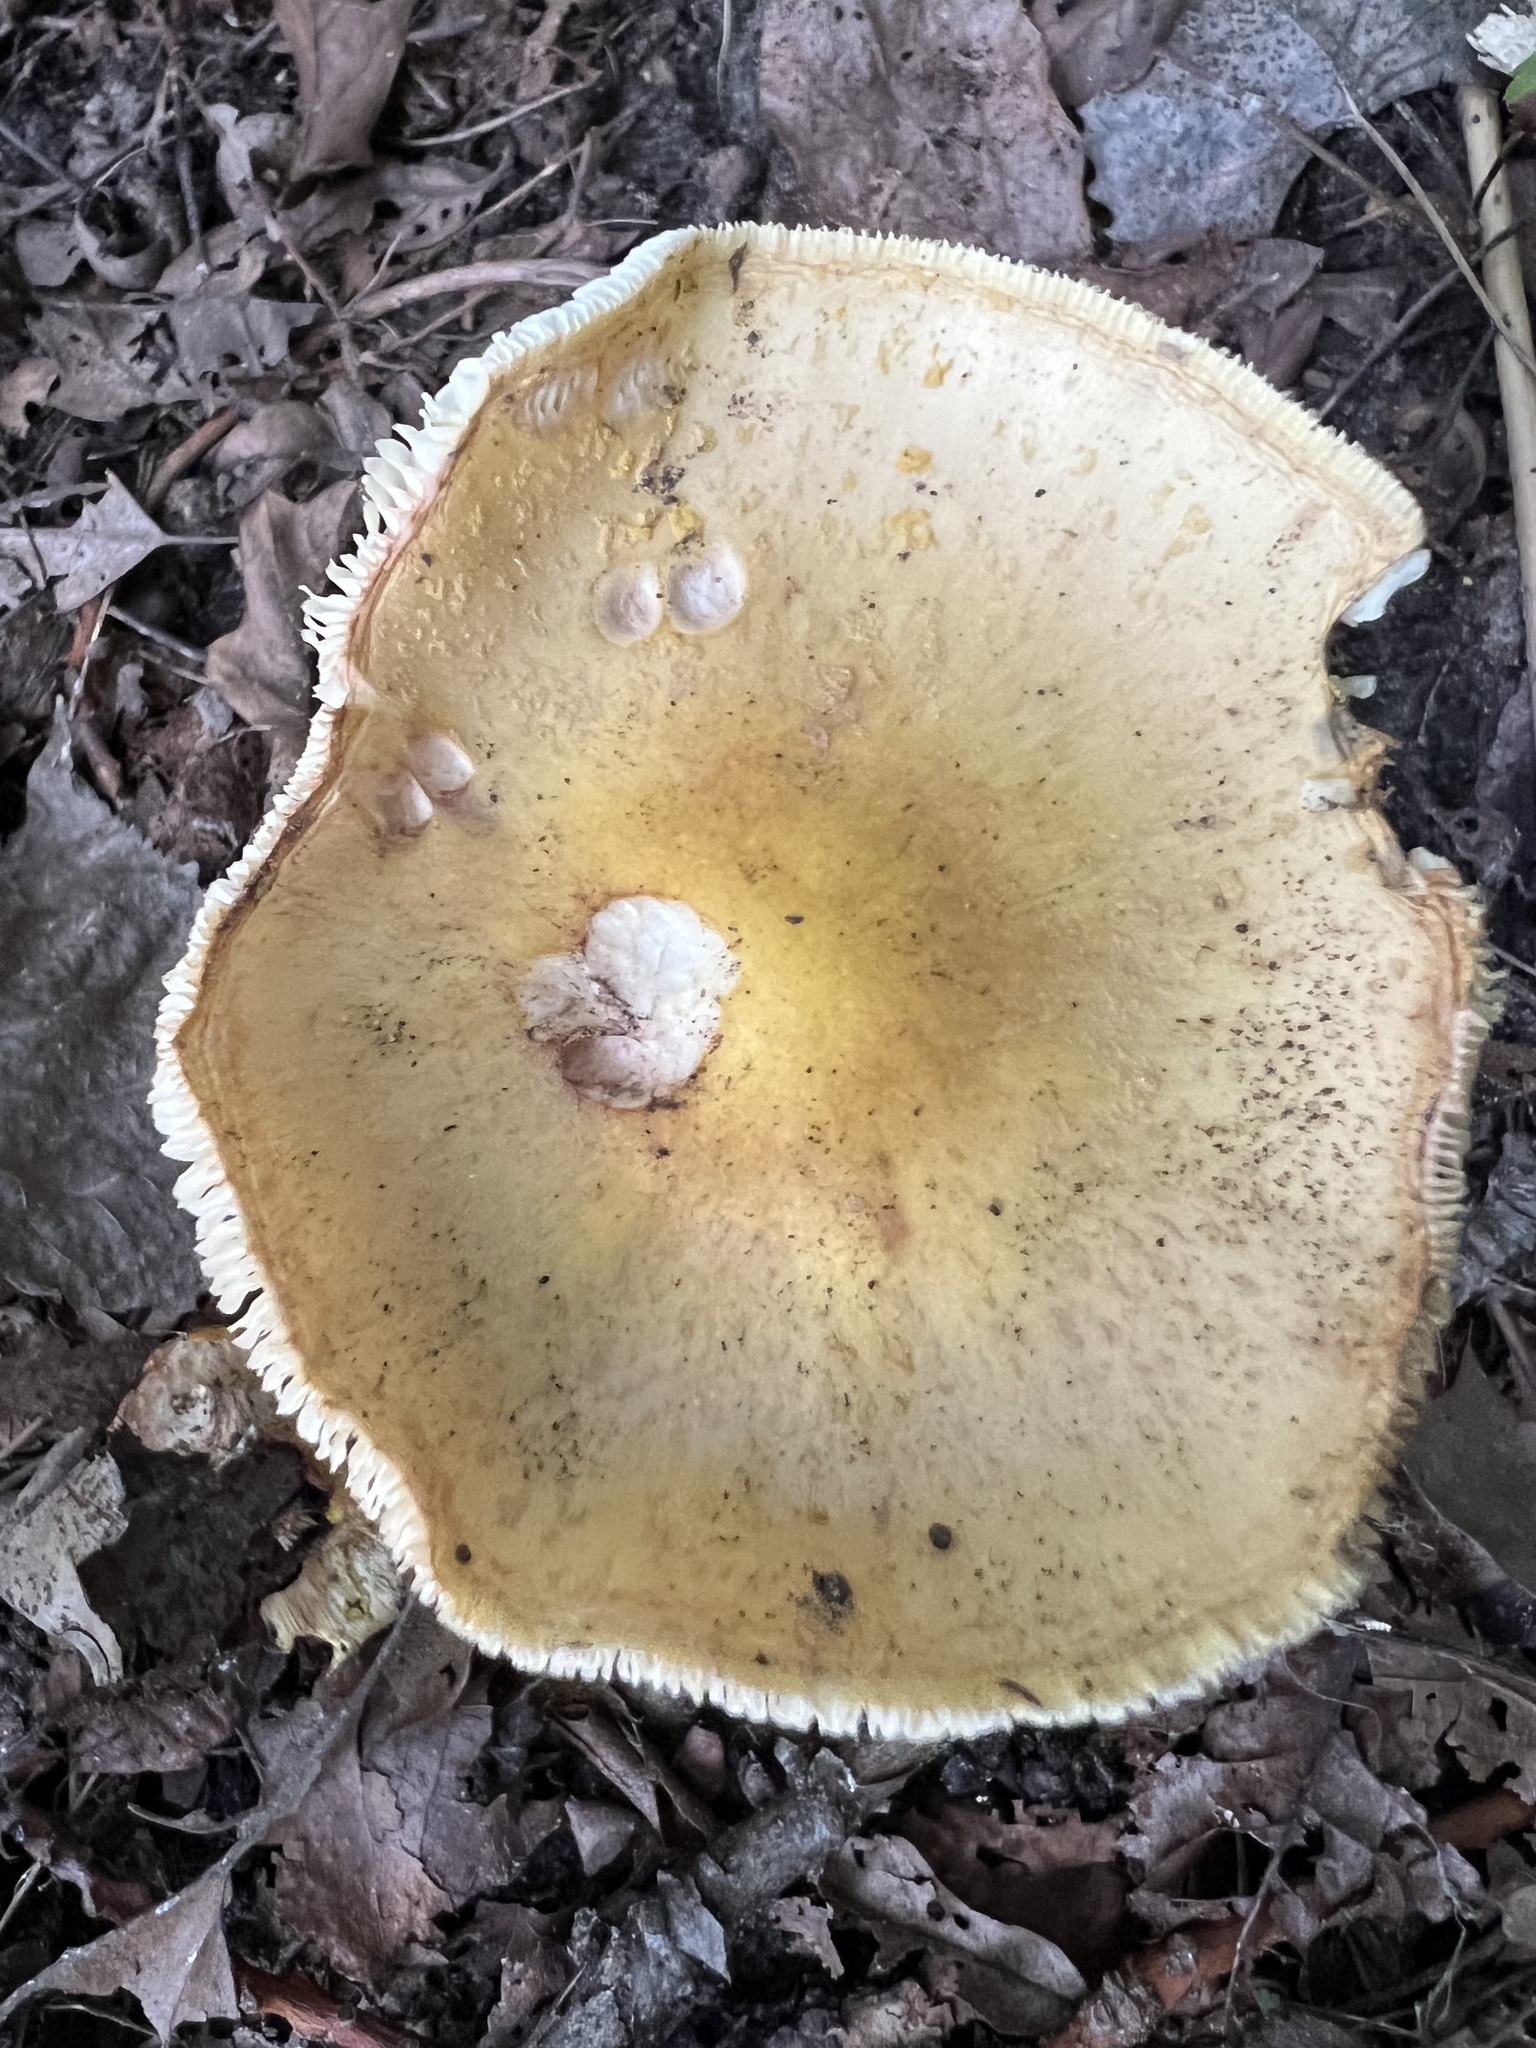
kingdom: Fungi
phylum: Basidiomycota
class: Agaricomycetes
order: Agaricales
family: Amanitaceae
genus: Amanita
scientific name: Amanita flavorubens
